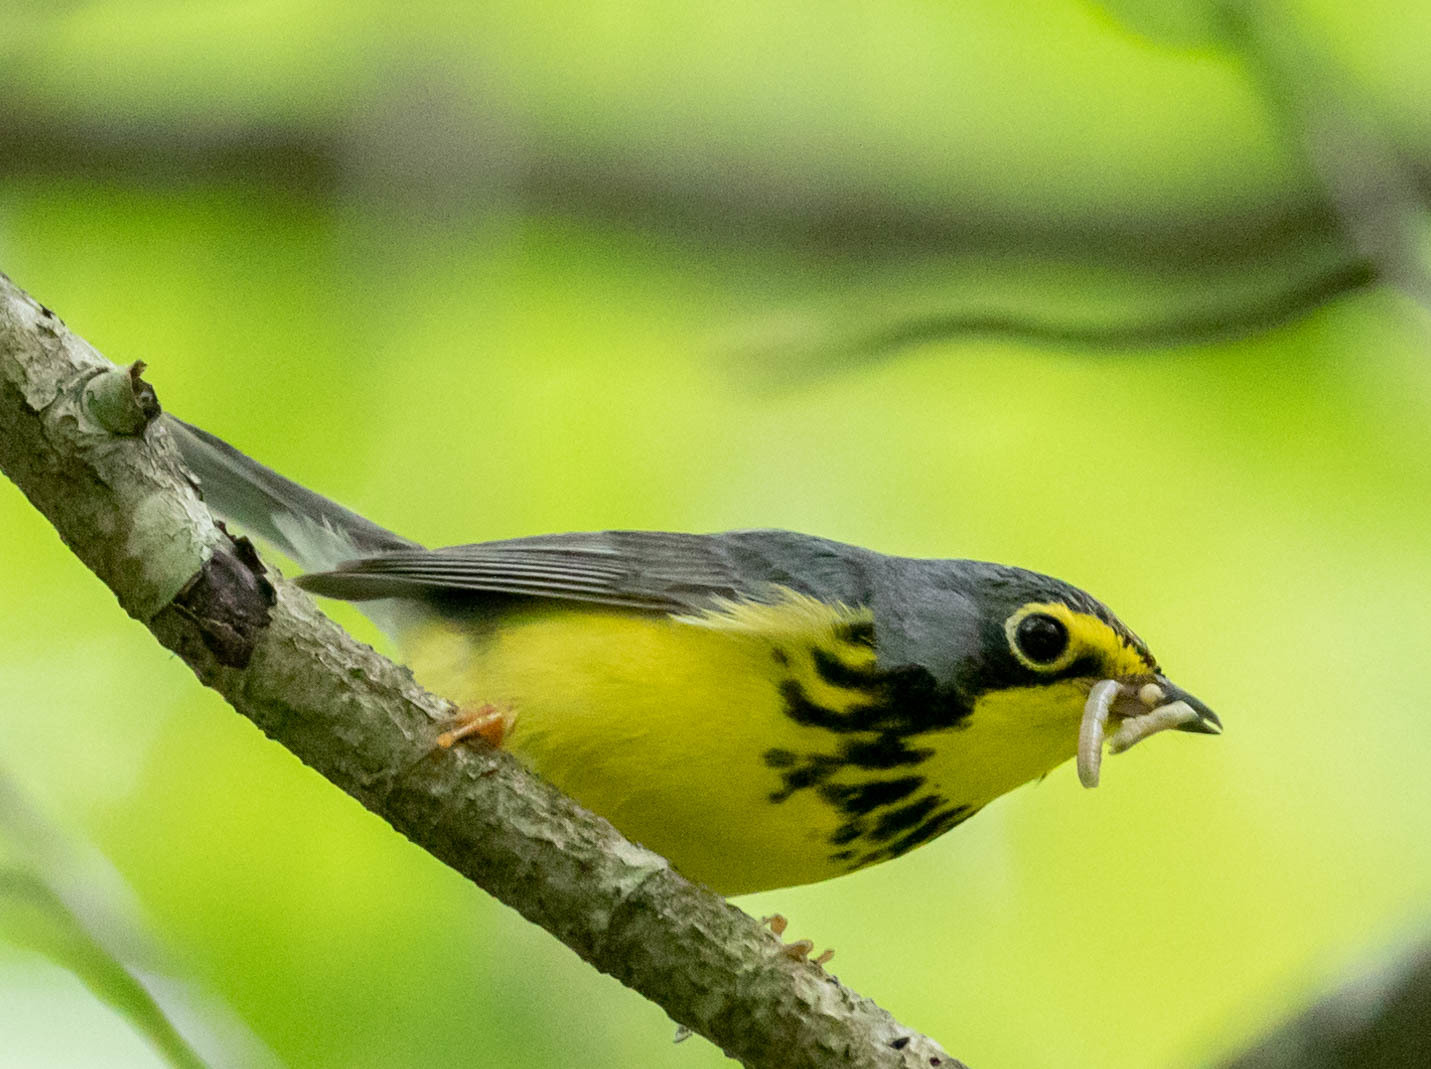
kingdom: Animalia
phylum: Chordata
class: Aves
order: Passeriformes
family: Parulidae
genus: Cardellina
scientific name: Cardellina canadensis
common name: Canada warbler
